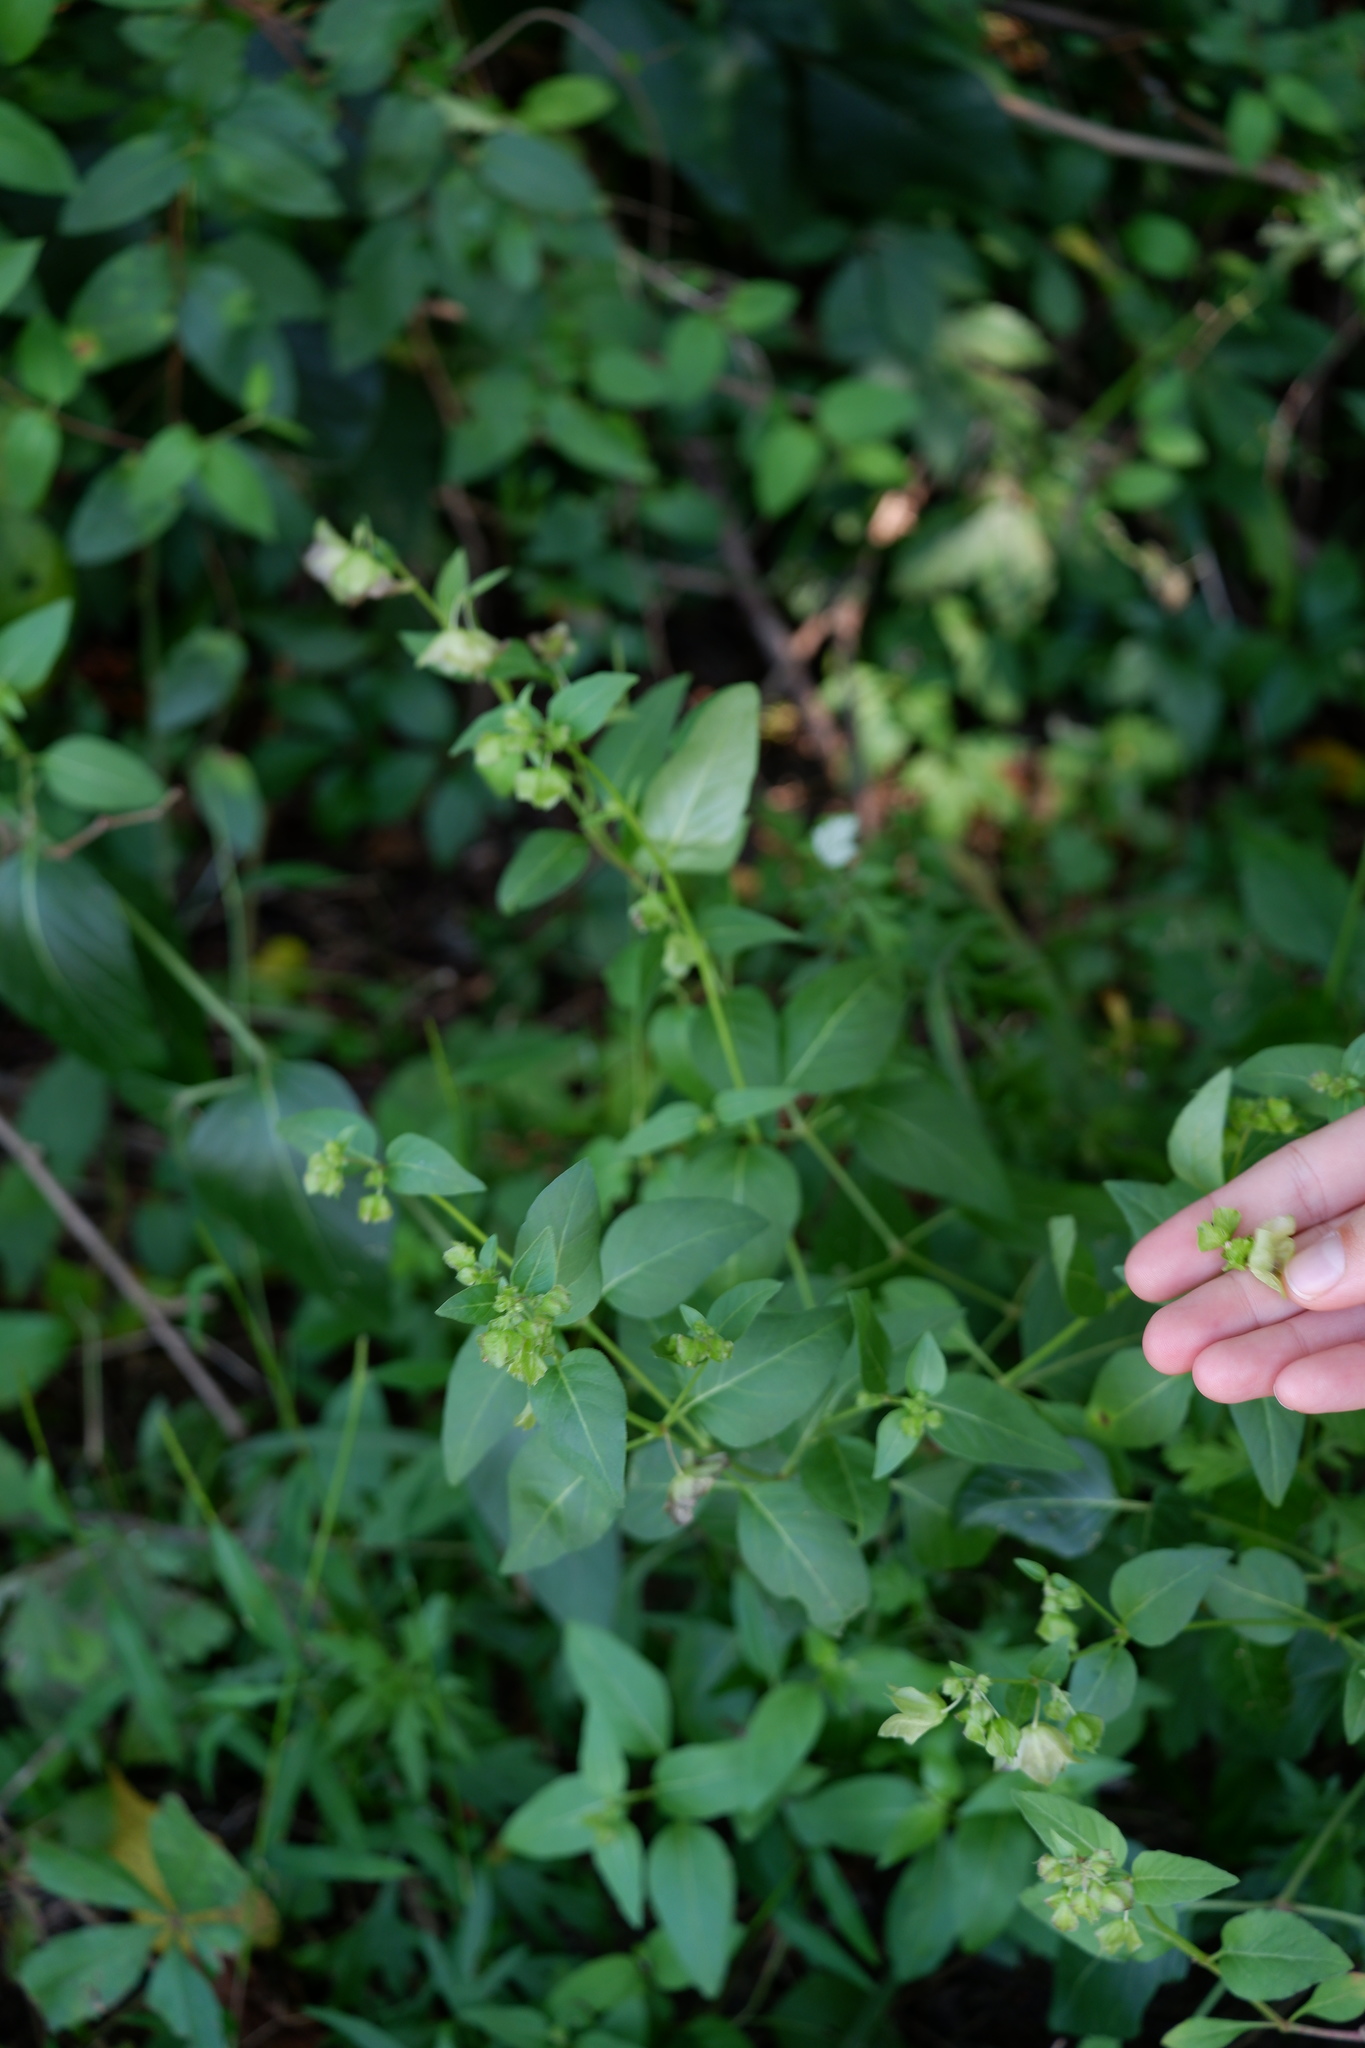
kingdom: Plantae
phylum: Tracheophyta
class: Magnoliopsida
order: Caryophyllales
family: Nyctaginaceae
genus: Mirabilis
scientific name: Mirabilis nyctaginea
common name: Umbrella wort
